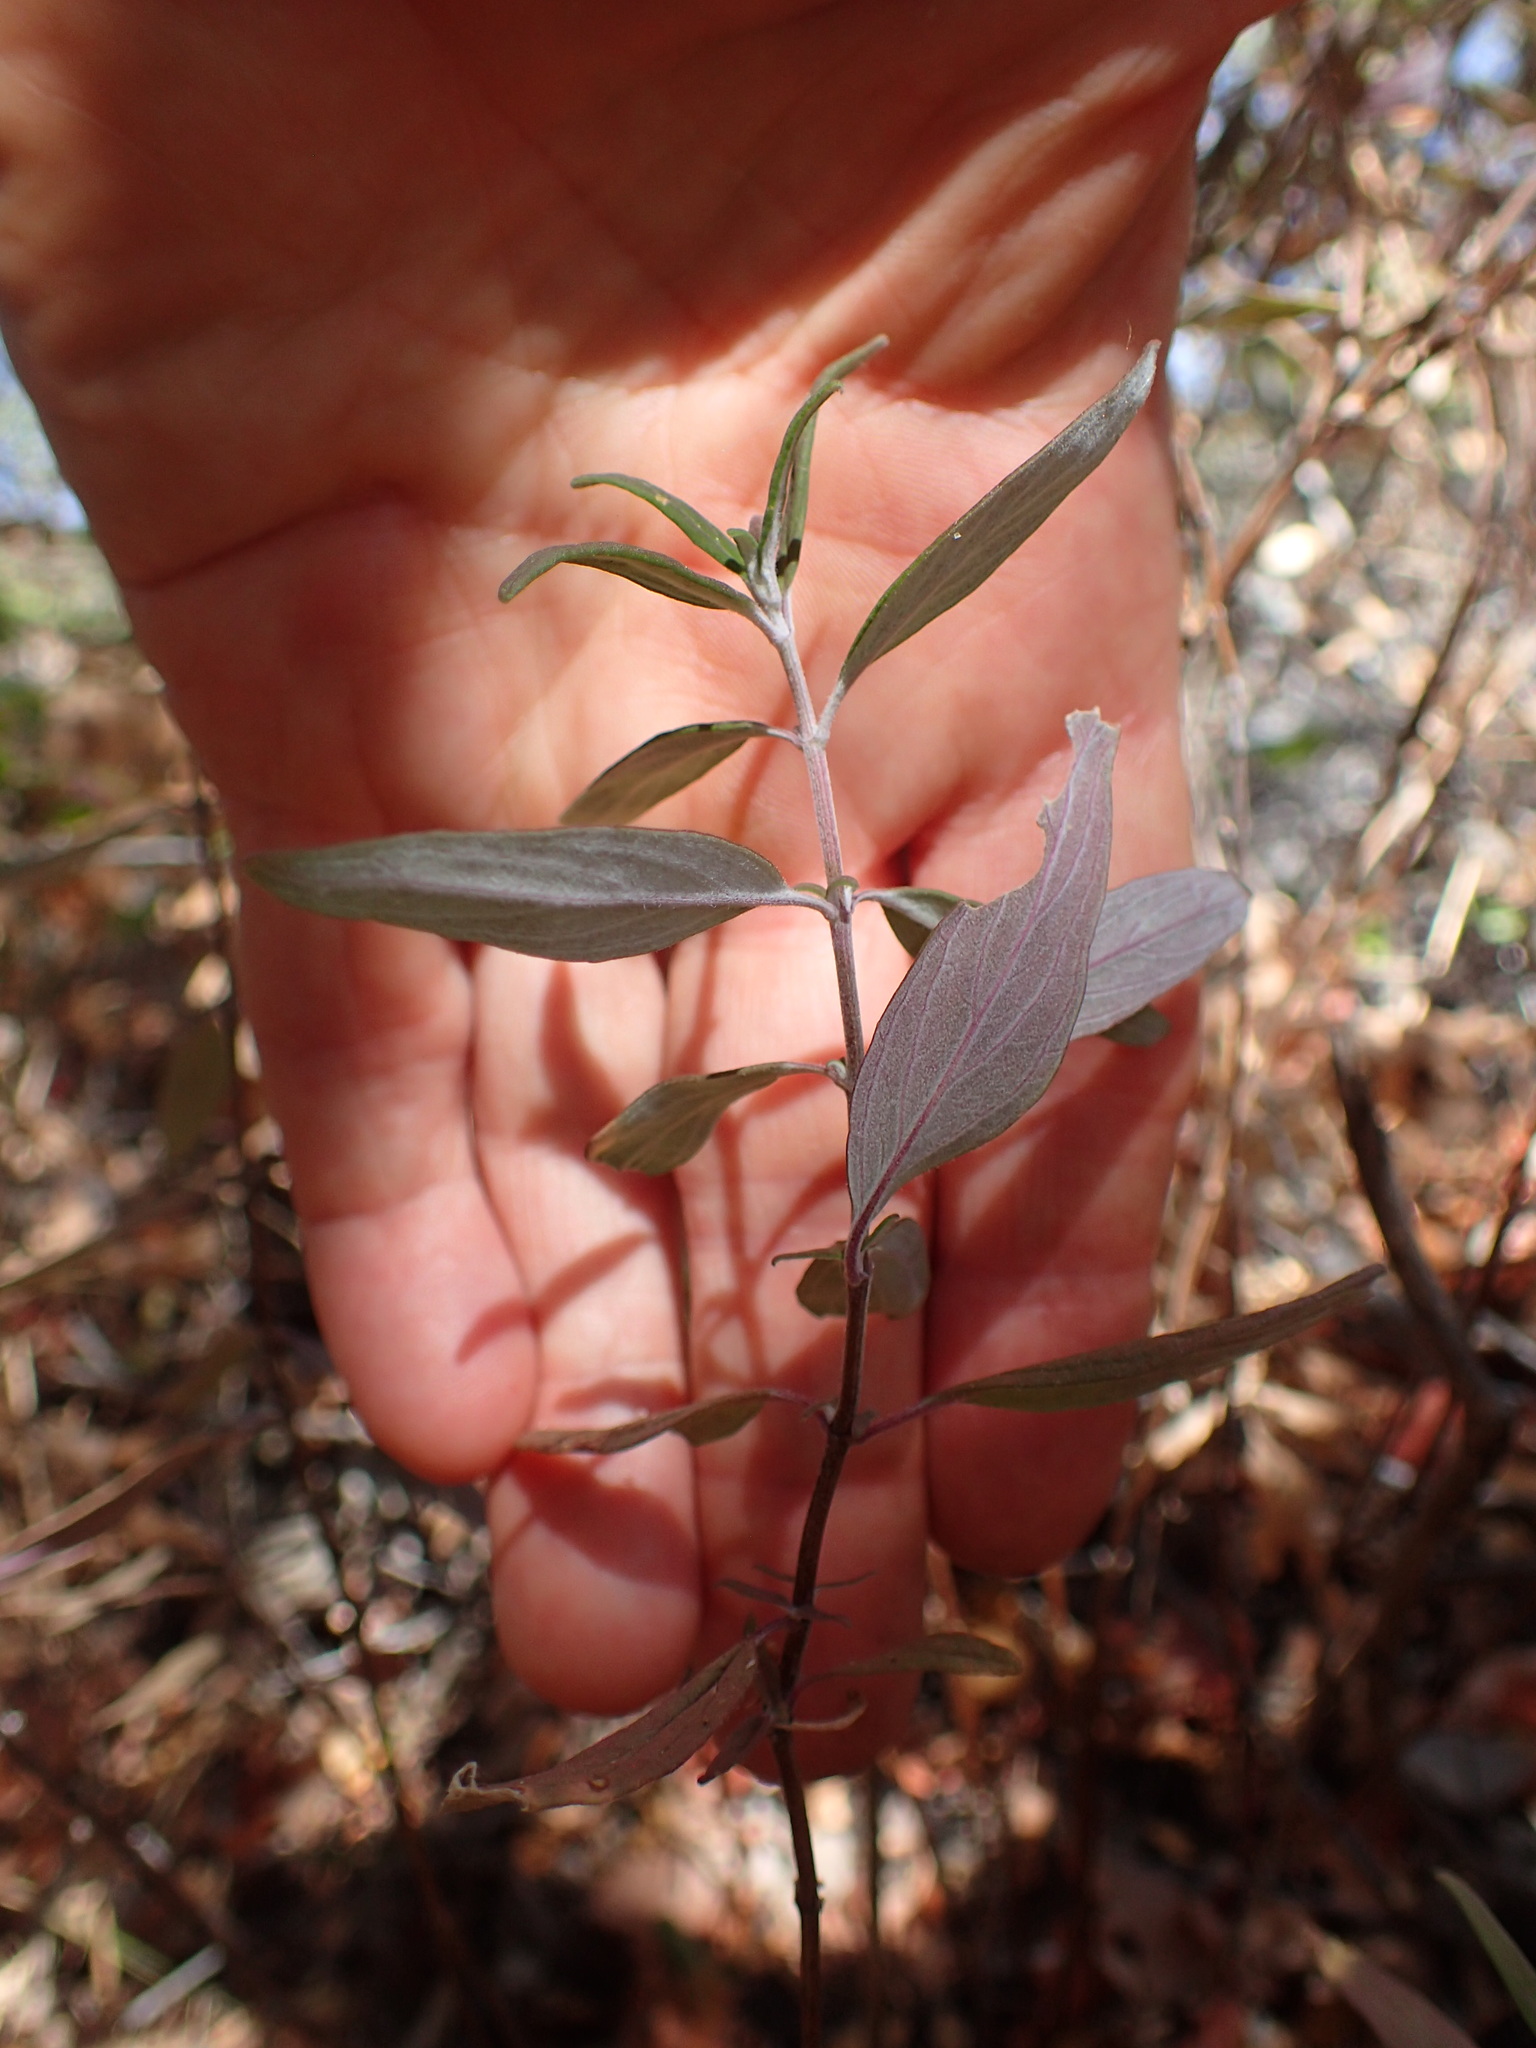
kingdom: Plantae
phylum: Tracheophyta
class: Magnoliopsida
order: Lamiales
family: Lamiaceae
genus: Monardella
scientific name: Monardella hypoleuca
